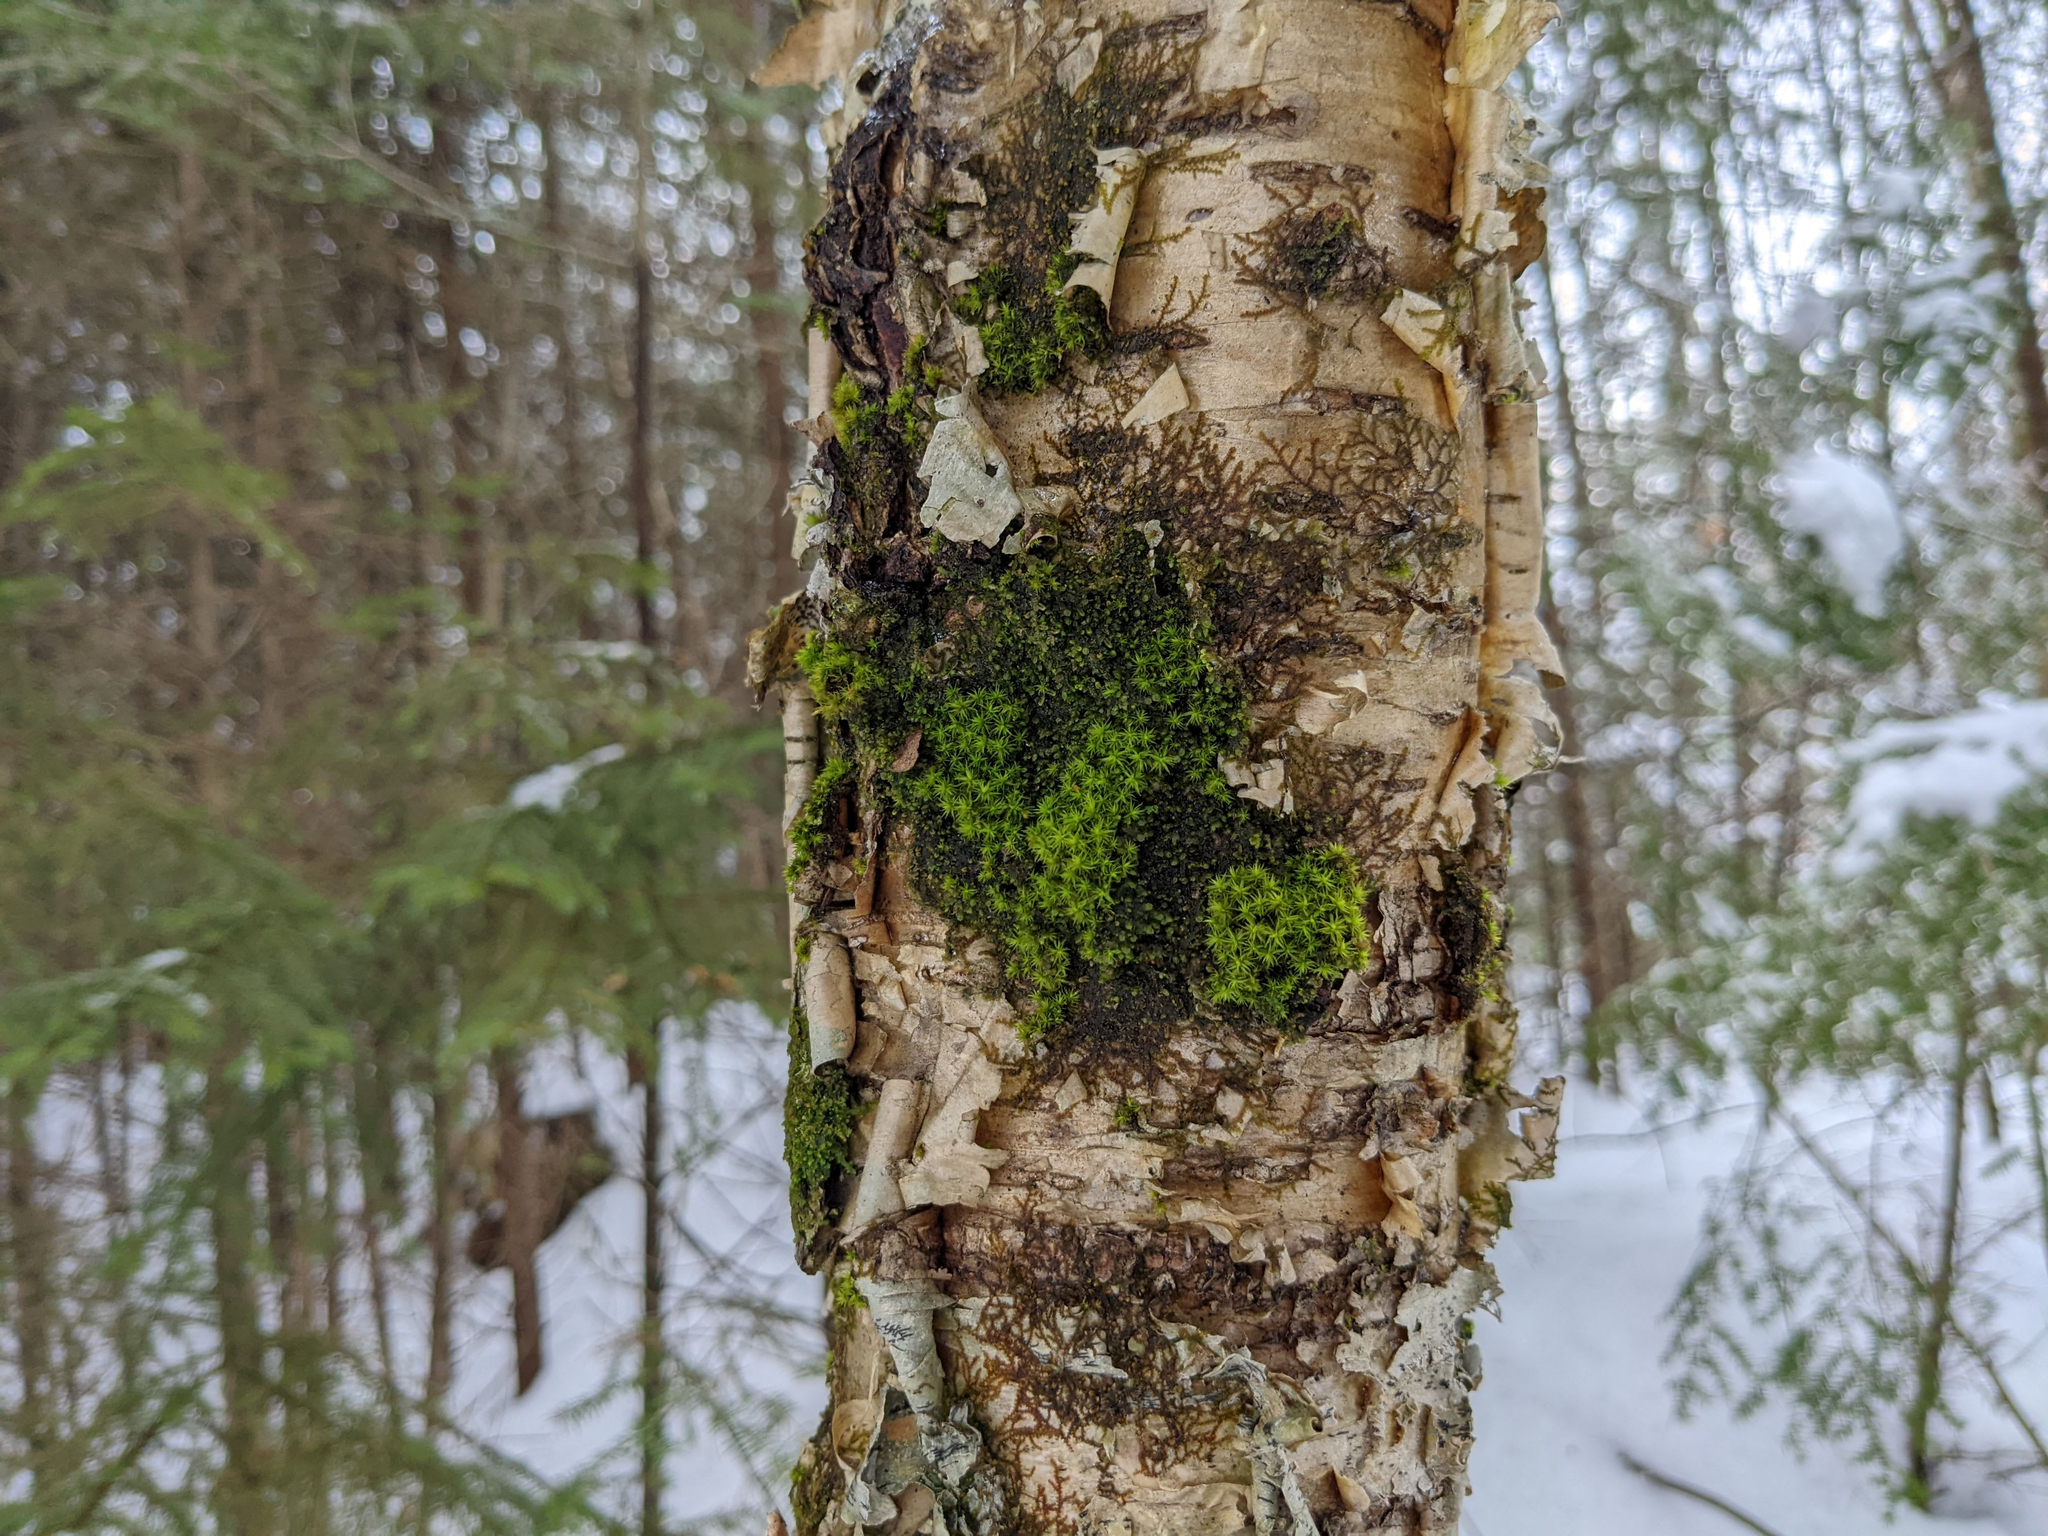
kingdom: Plantae
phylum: Bryophyta
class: Bryopsida
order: Orthotrichales
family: Orthotrichaceae
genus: Ulota
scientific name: Ulota crispa
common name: Crisped pincushion moss
